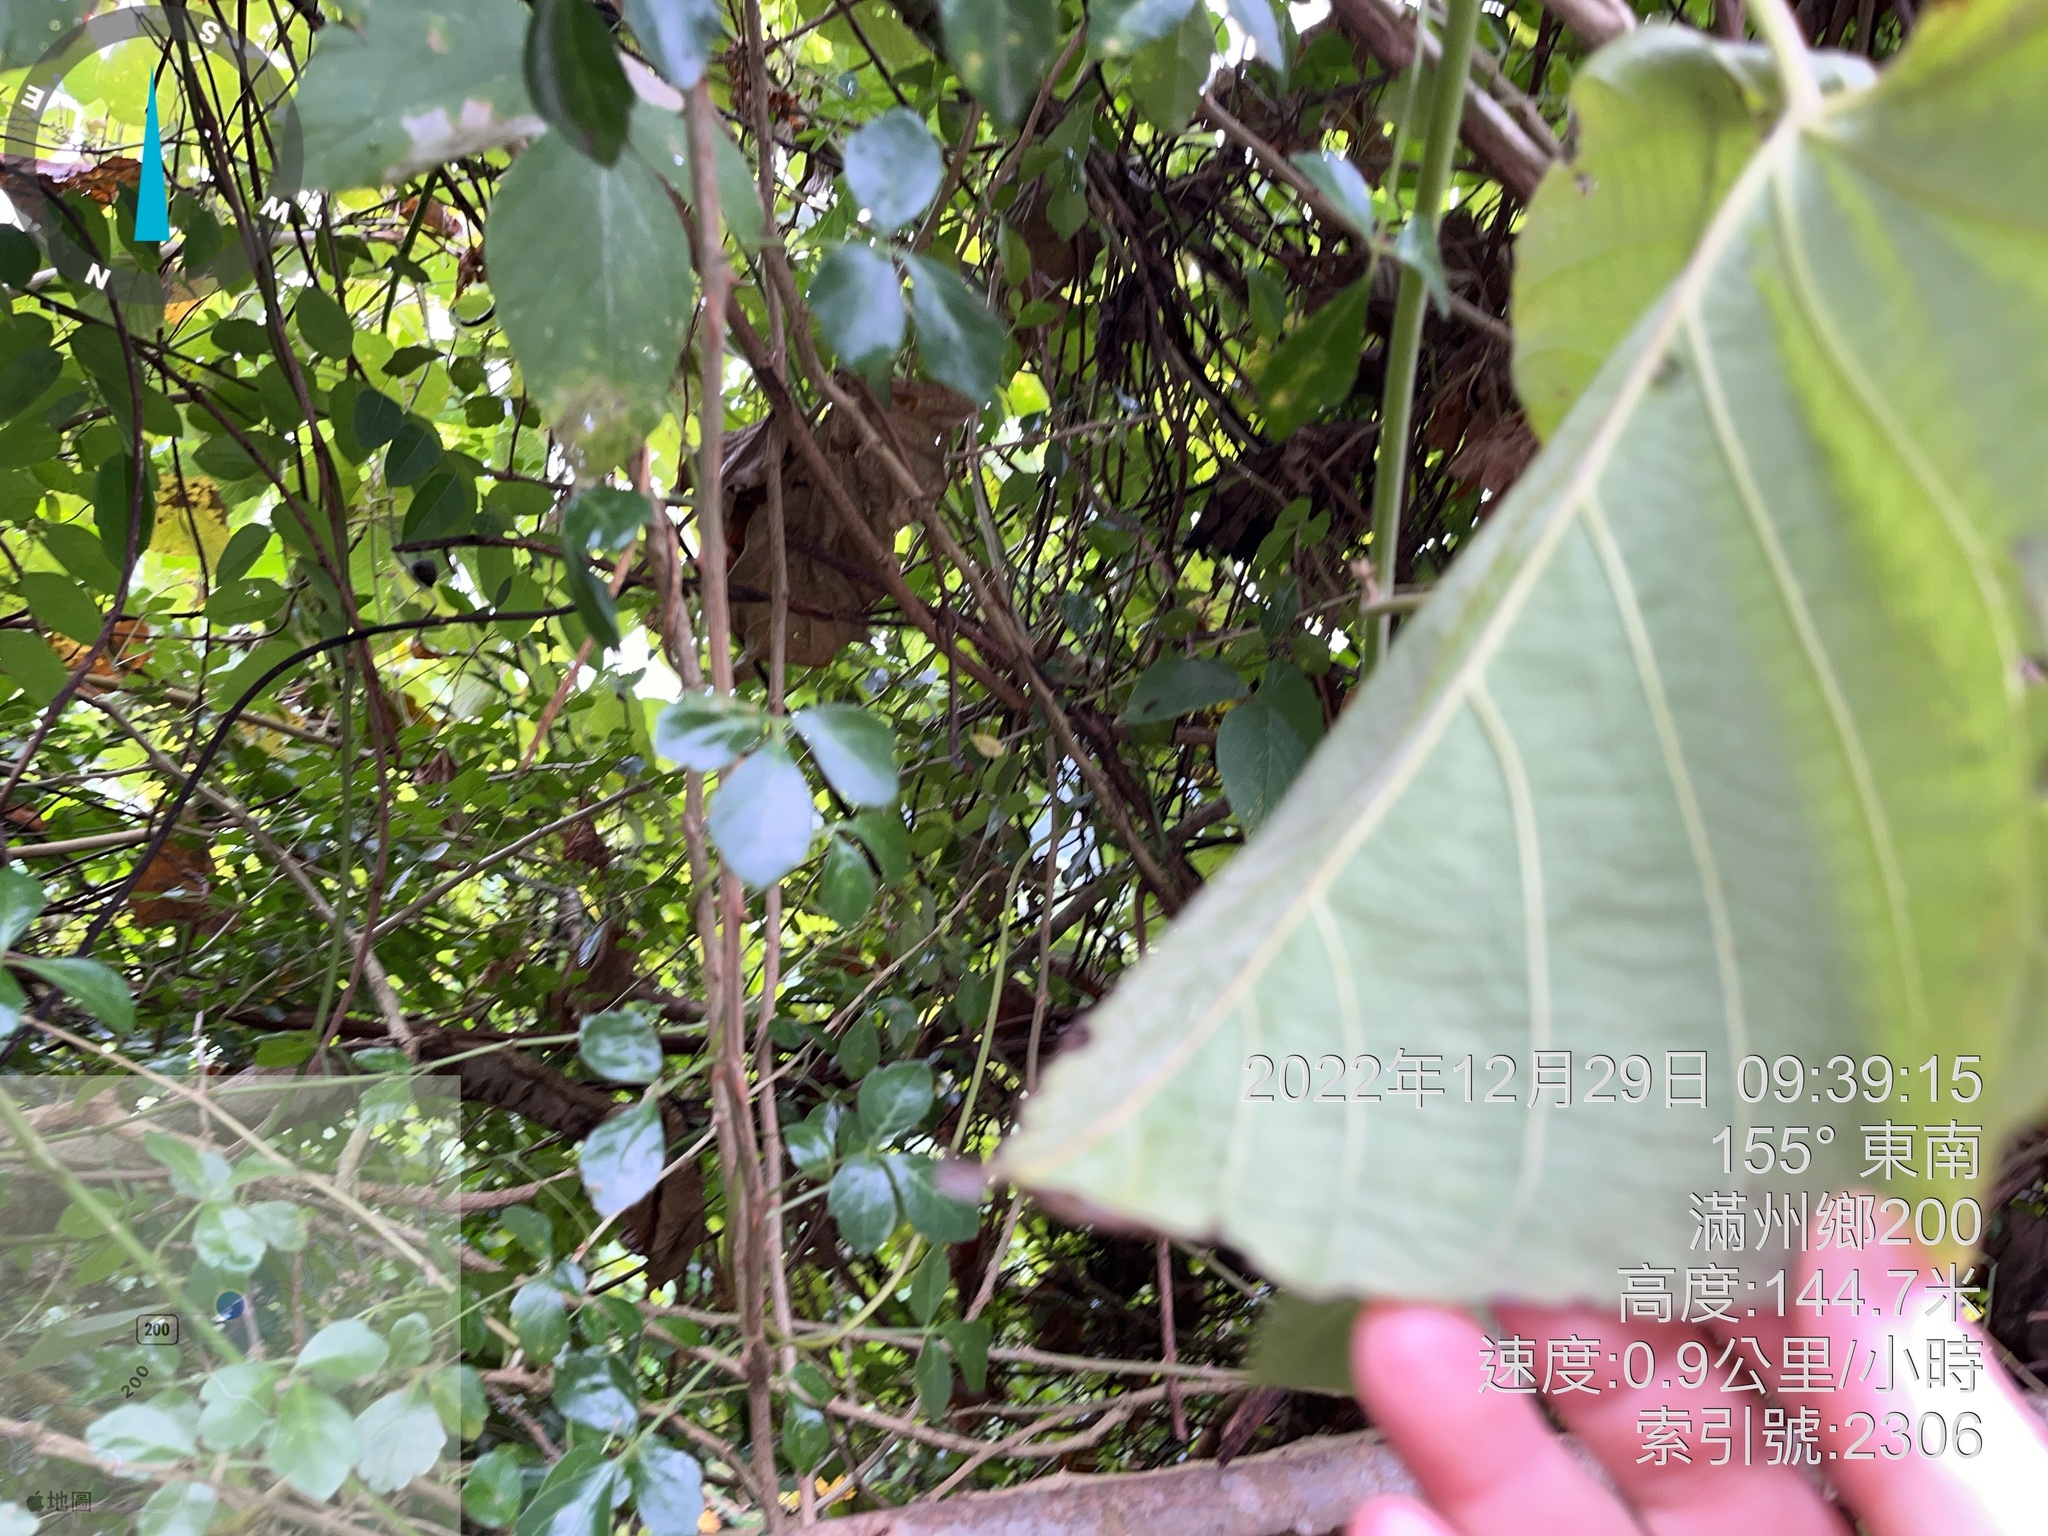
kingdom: Plantae
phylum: Tracheophyta
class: Magnoliopsida
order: Solanales
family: Convolvulaceae
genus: Decalobanthus
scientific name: Decalobanthus distillatorius
